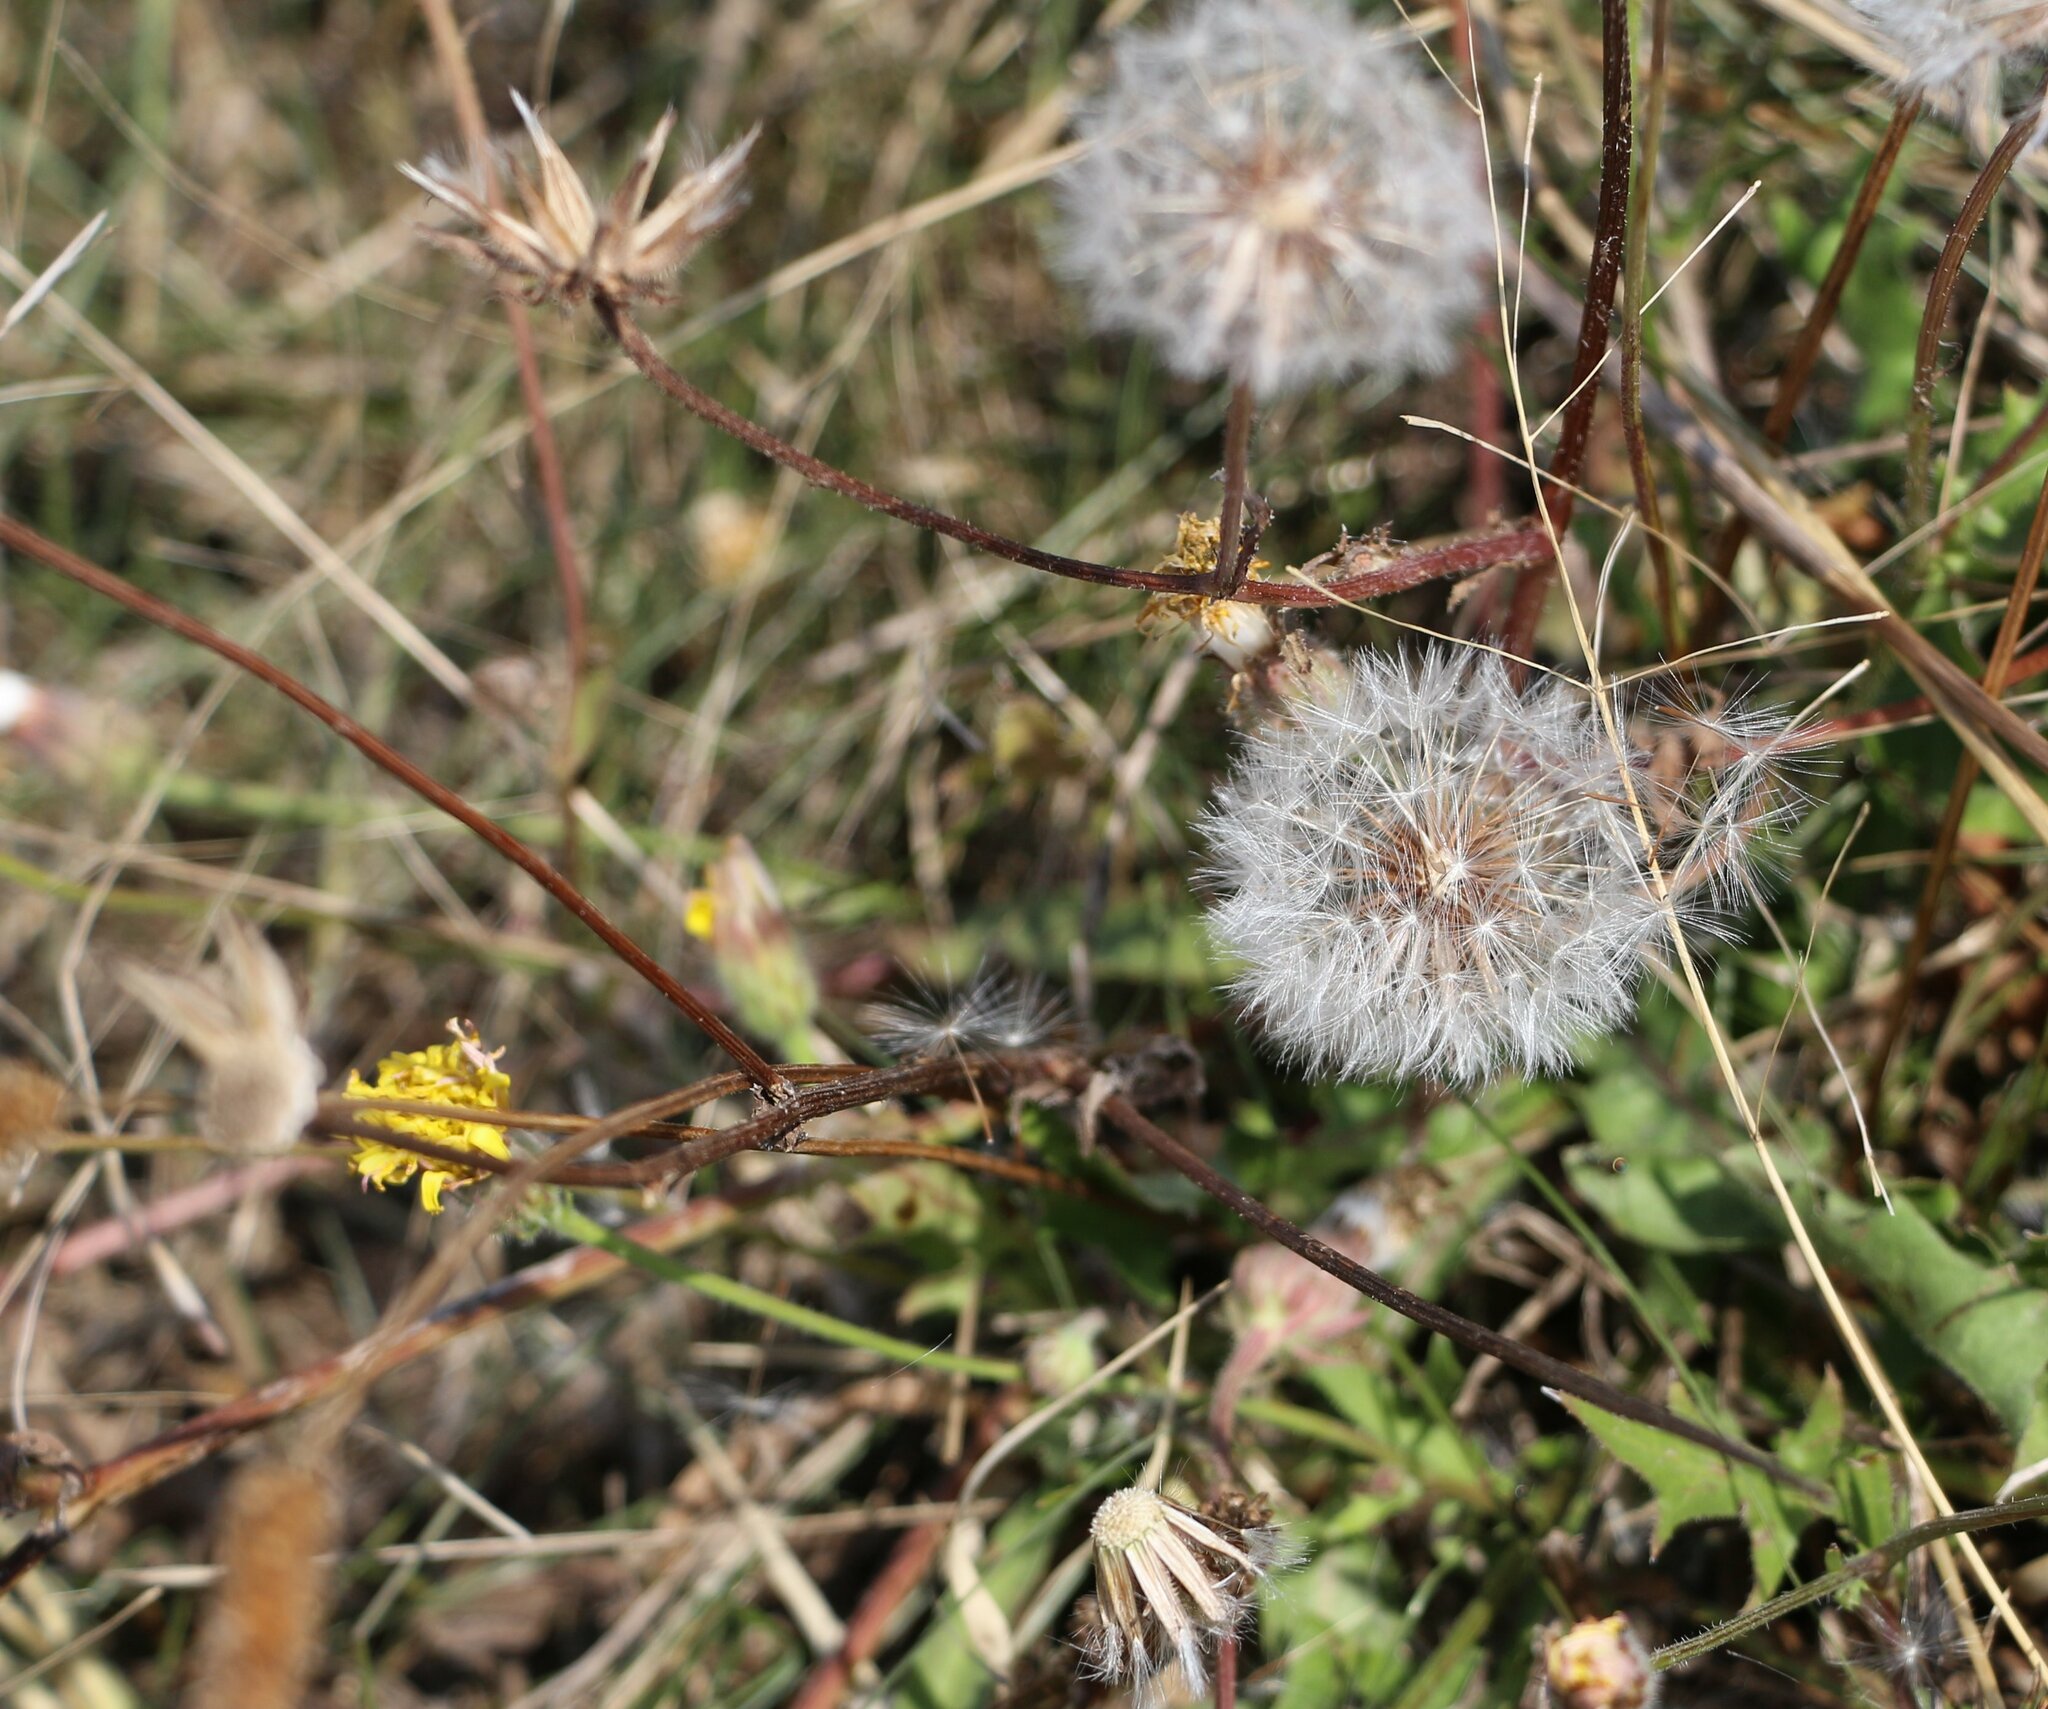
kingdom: Plantae
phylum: Tracheophyta
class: Magnoliopsida
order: Asterales
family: Asteraceae
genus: Crepis
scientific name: Crepis foetida
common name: Stinking hawk's-beard
